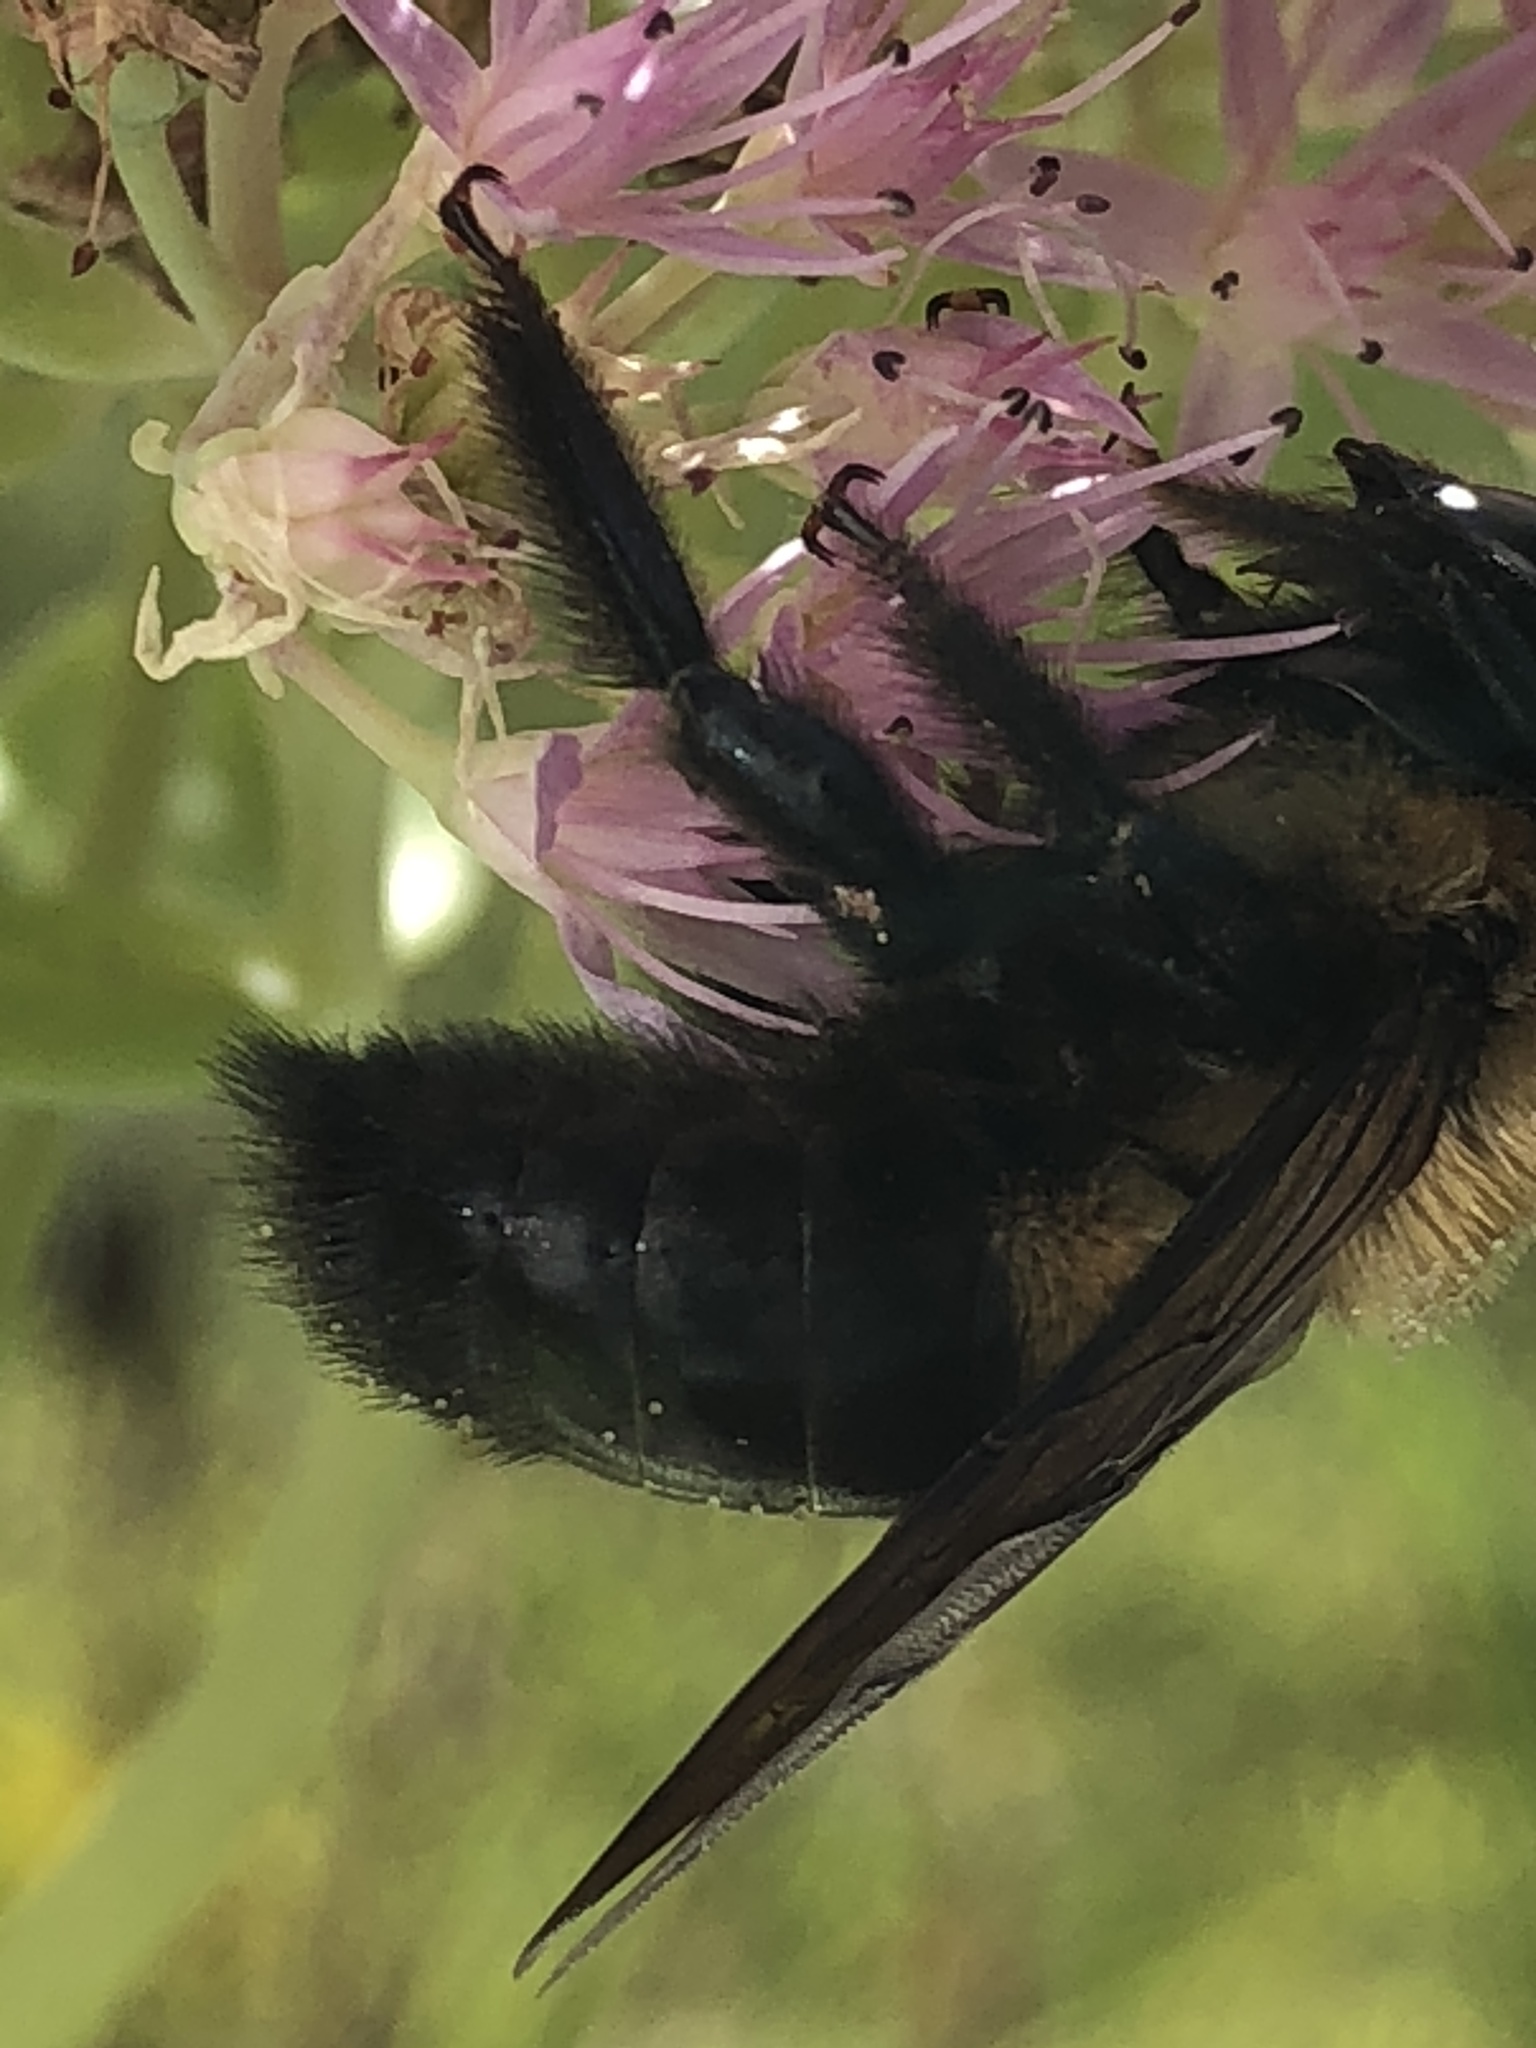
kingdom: Animalia
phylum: Arthropoda
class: Insecta
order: Hymenoptera
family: Apidae
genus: Xylocopa
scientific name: Xylocopa virginica
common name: Carpenter bee
